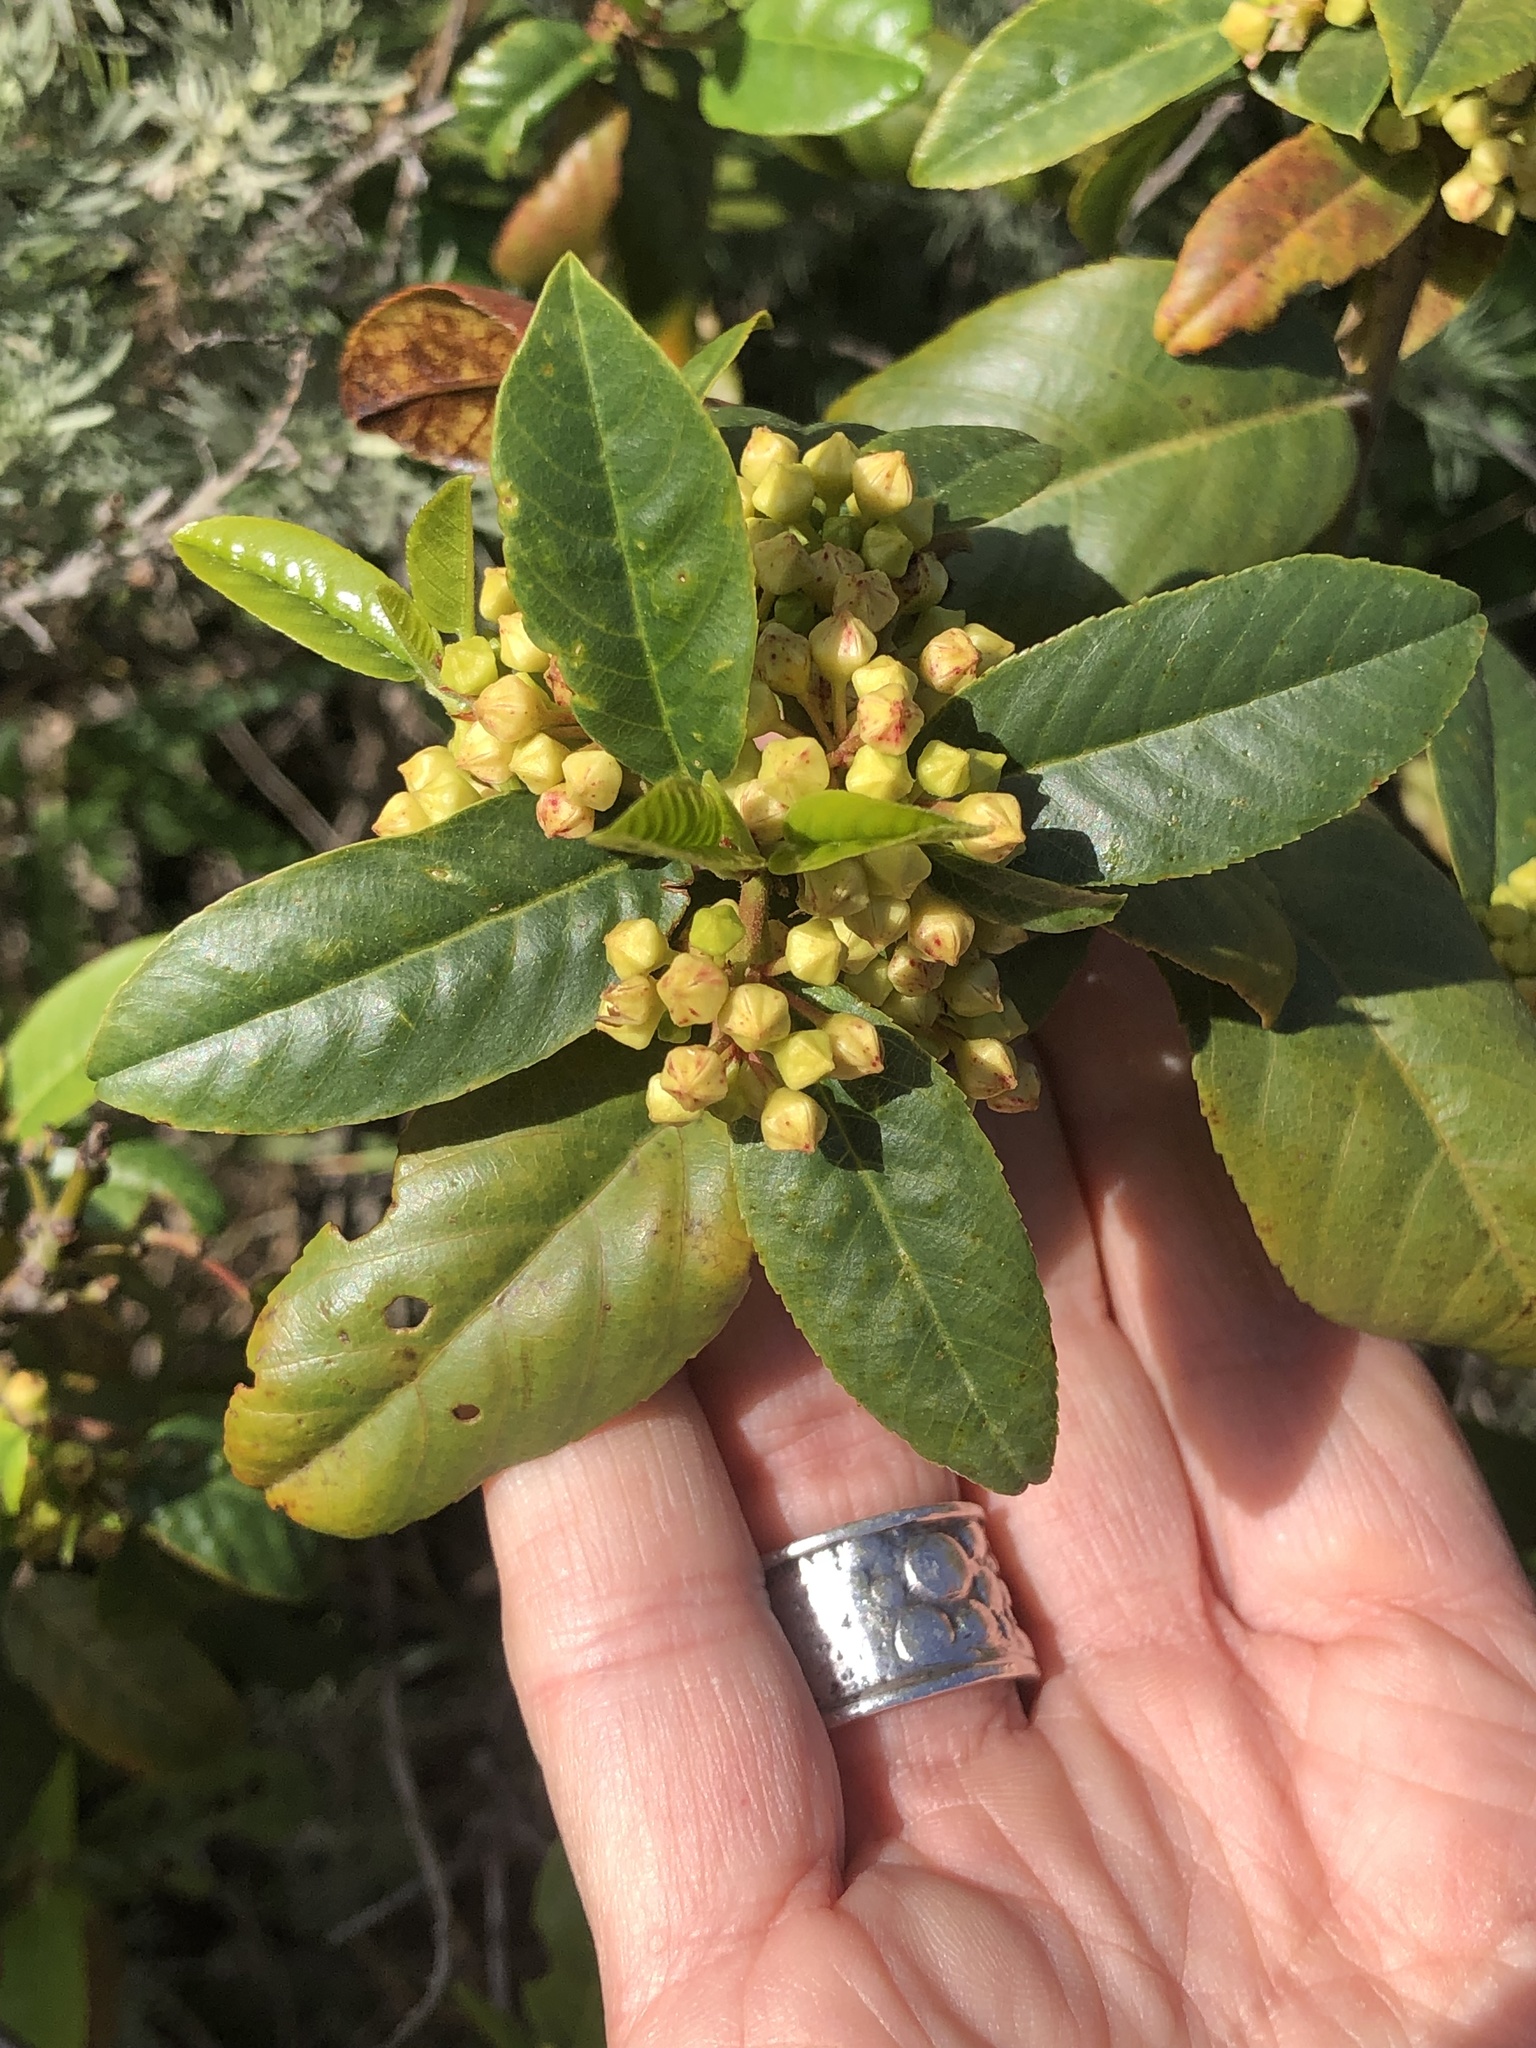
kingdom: Plantae
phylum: Tracheophyta
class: Magnoliopsida
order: Rosales
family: Rhamnaceae
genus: Frangula
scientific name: Frangula californica
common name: California buckthorn
